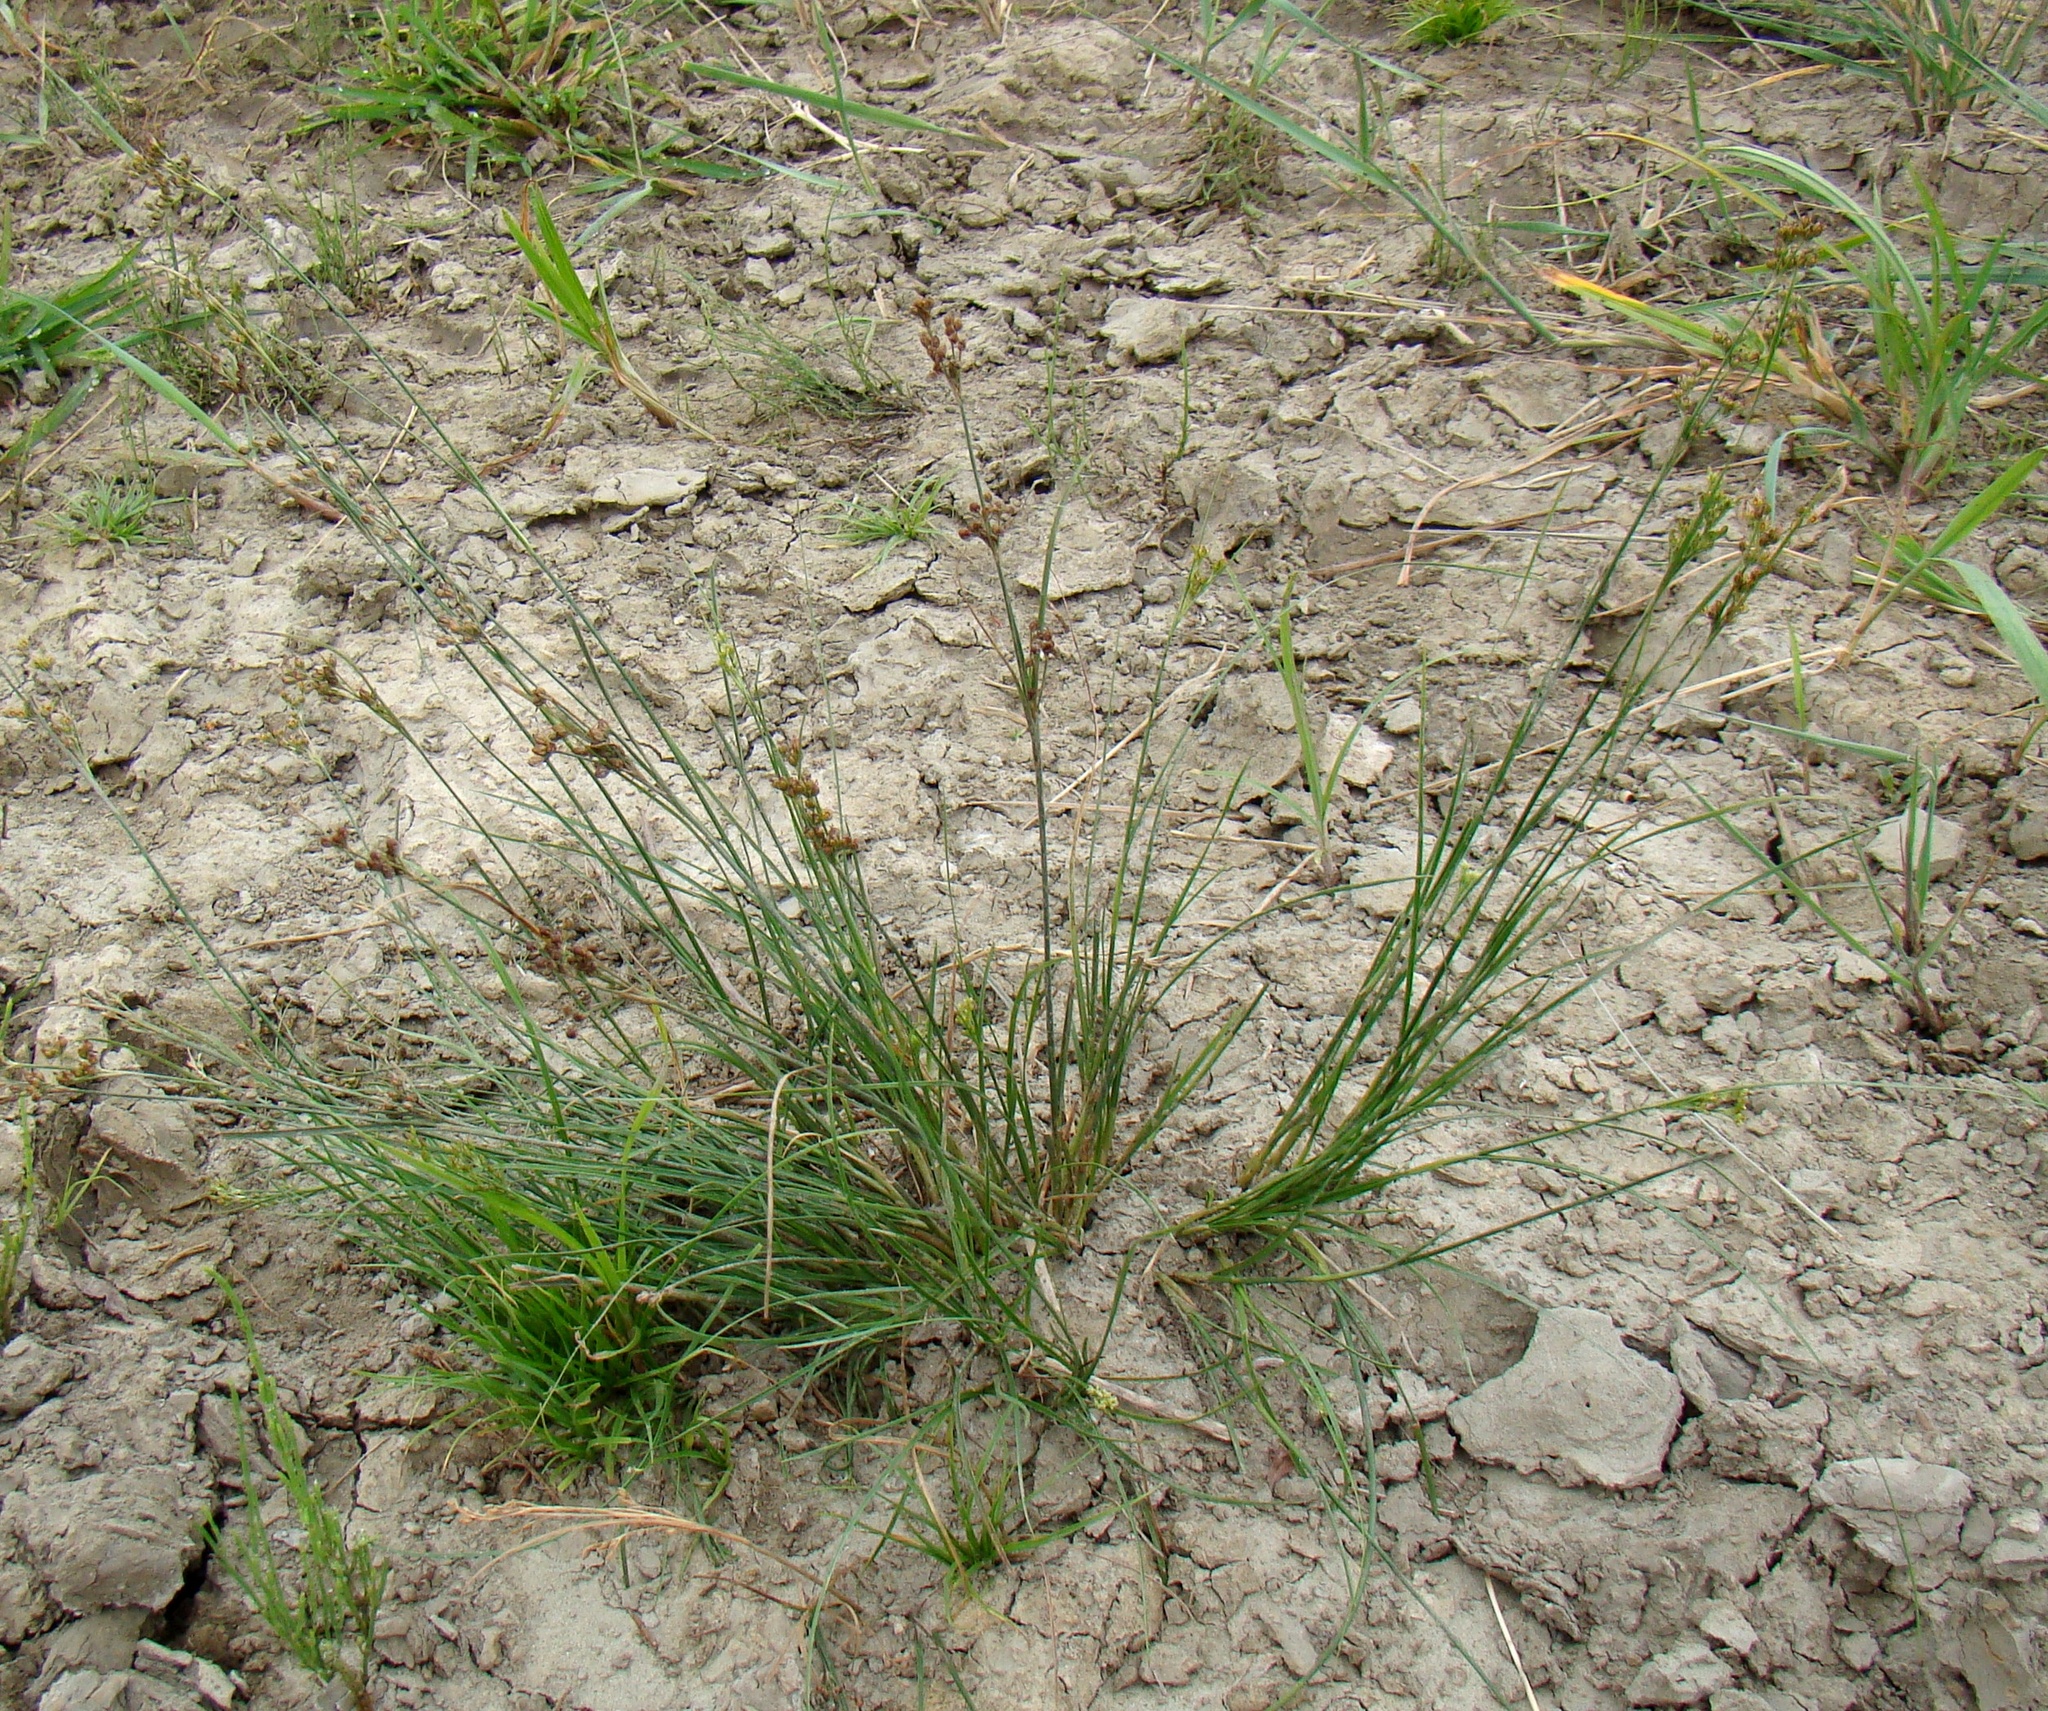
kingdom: Plantae
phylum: Tracheophyta
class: Liliopsida
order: Poales
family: Juncaceae
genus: Juncus
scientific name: Juncus compressus
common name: Round-fruited rush
